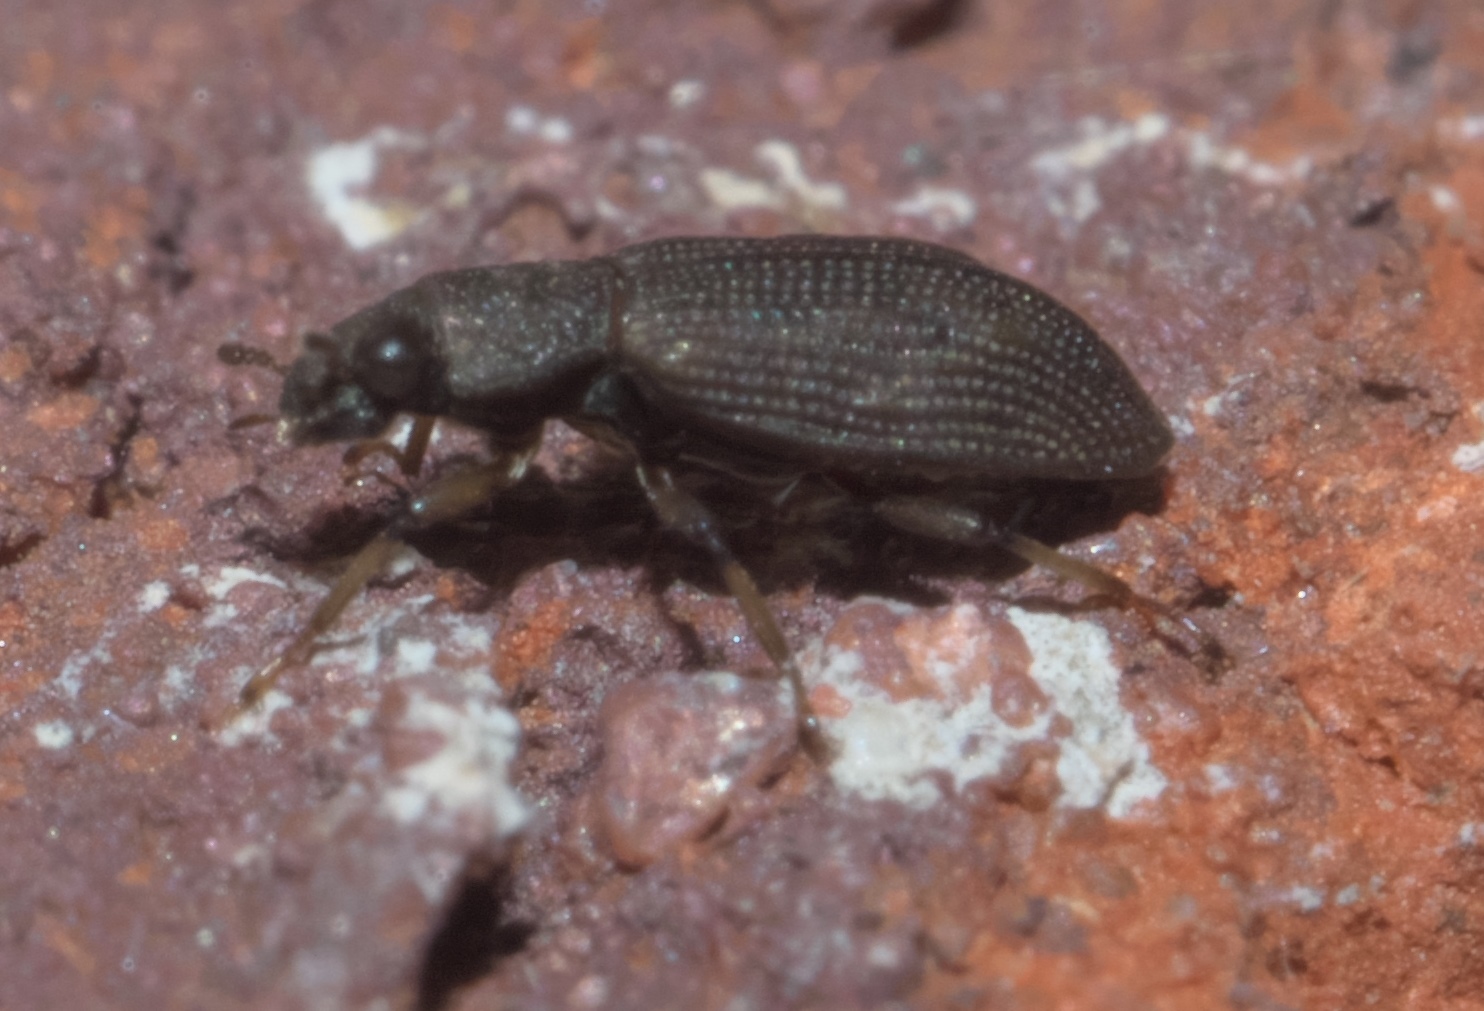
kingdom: Animalia
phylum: Arthropoda
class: Insecta
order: Coleoptera
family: Hydrochidae
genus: Hydrochus
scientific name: Hydrochus
